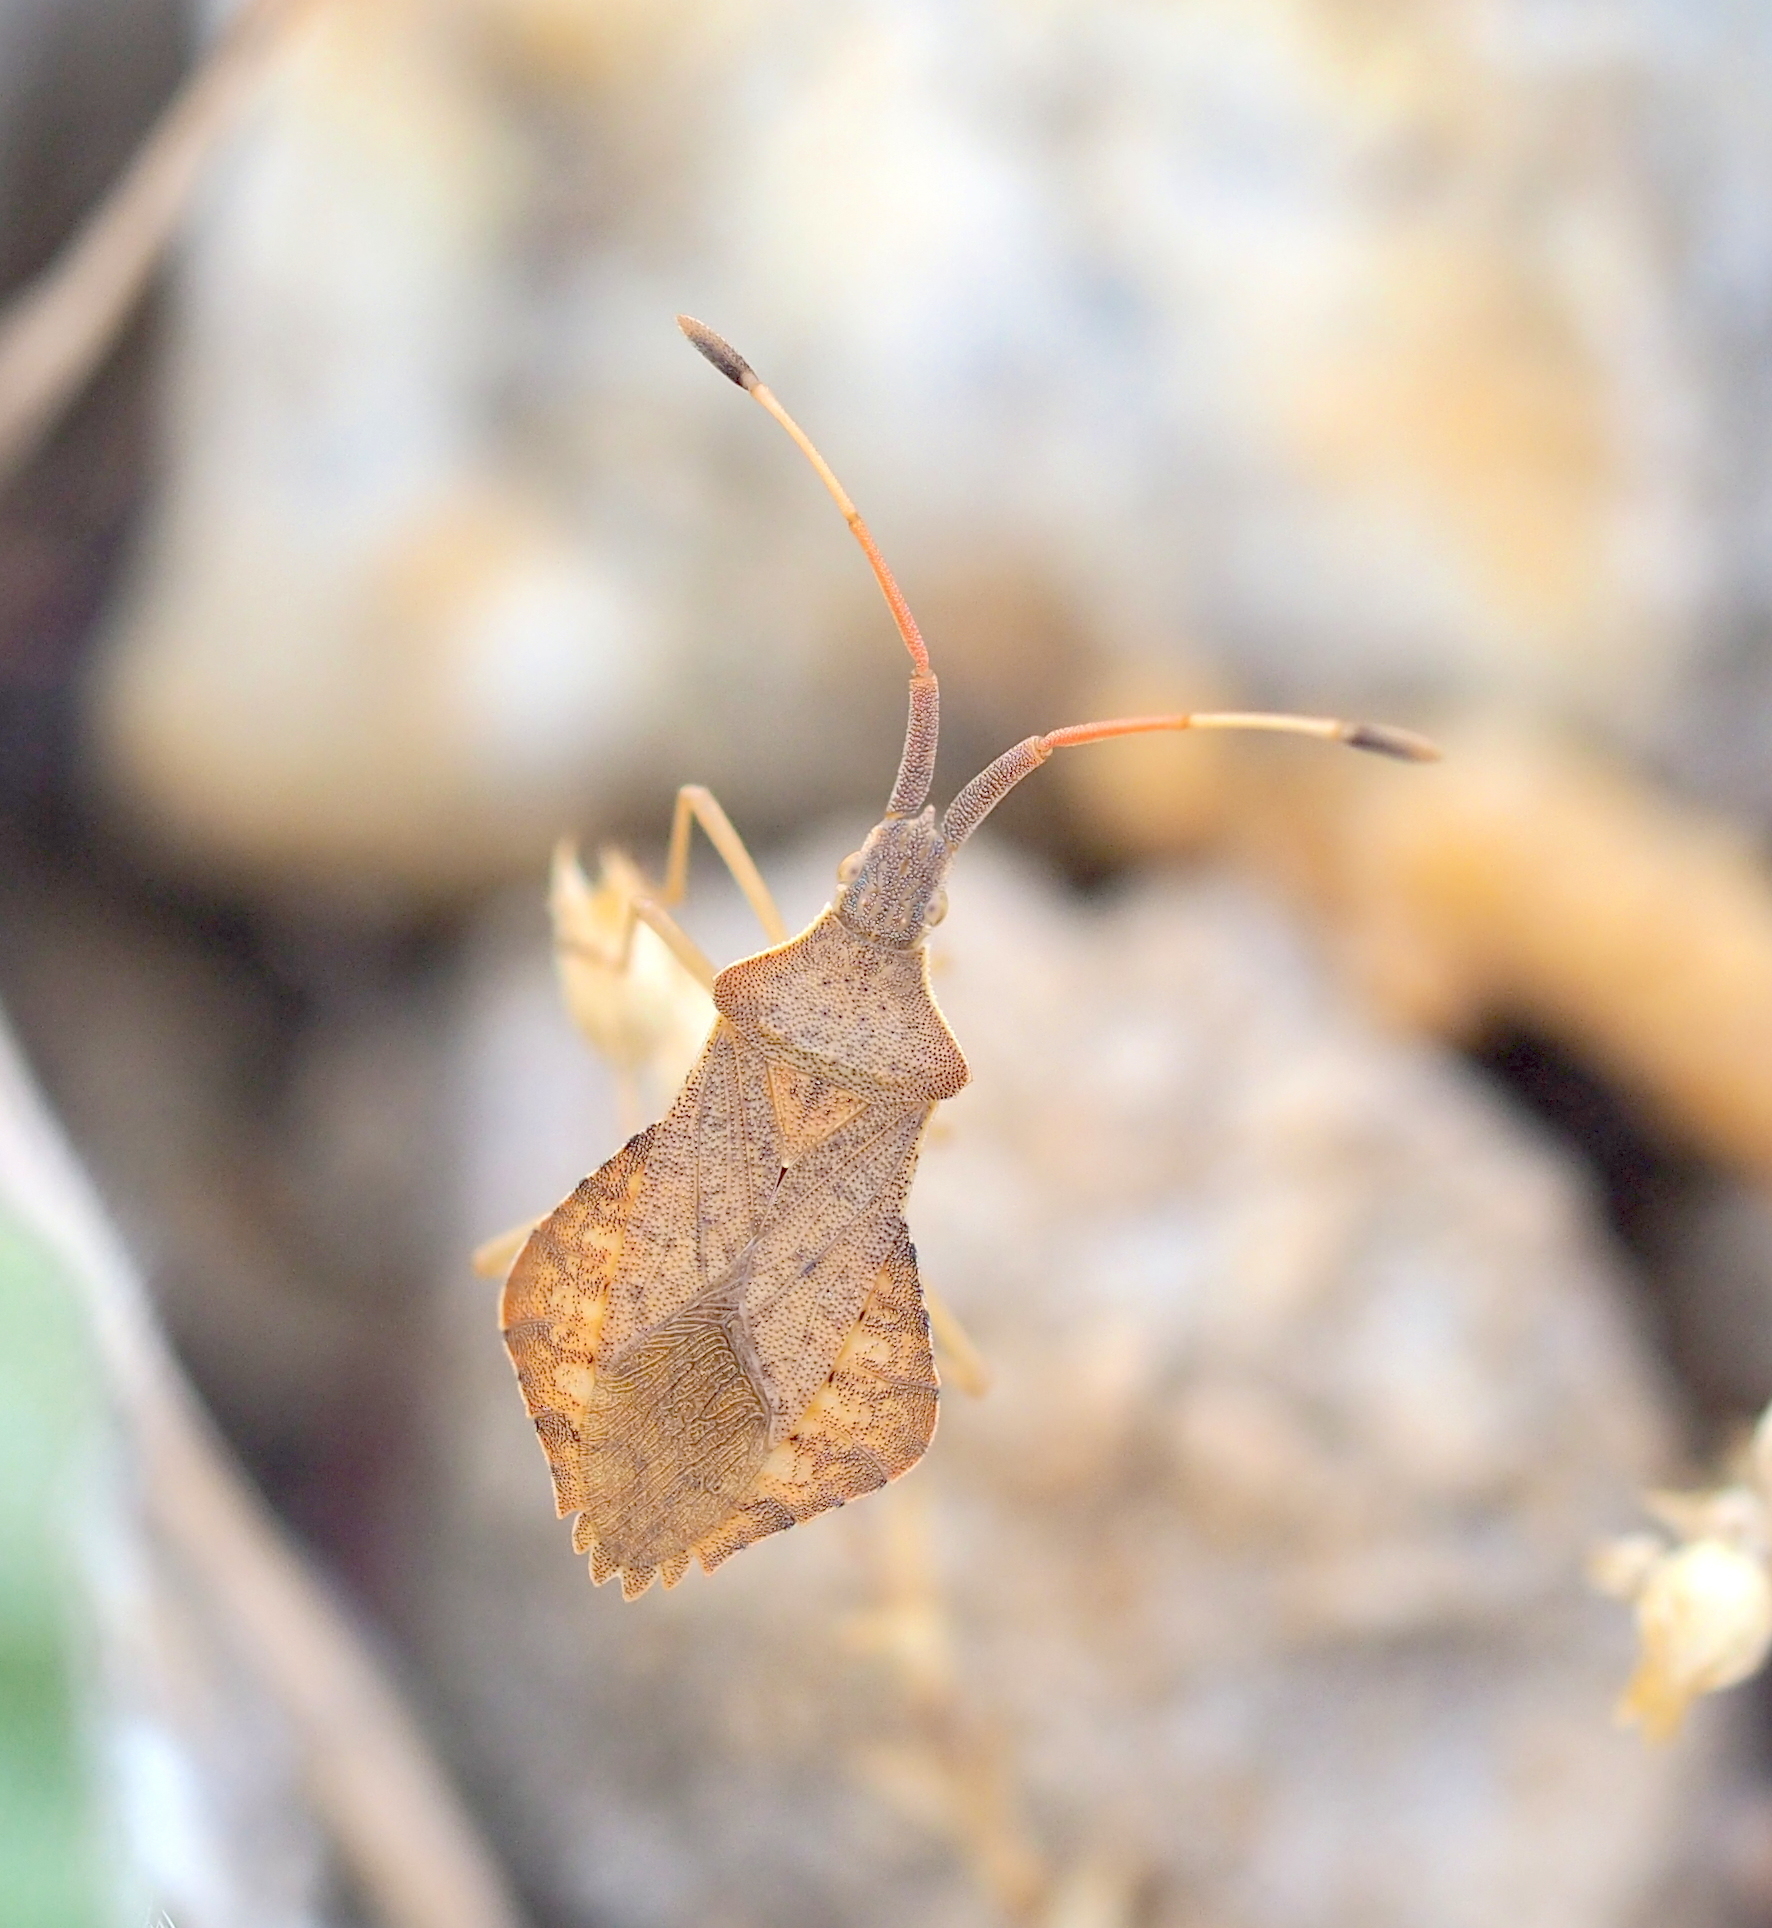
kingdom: Animalia
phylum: Arthropoda
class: Insecta
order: Hemiptera
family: Coreidae
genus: Syromastus
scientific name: Syromastus rhombeus
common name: Rhombic leatherbug
